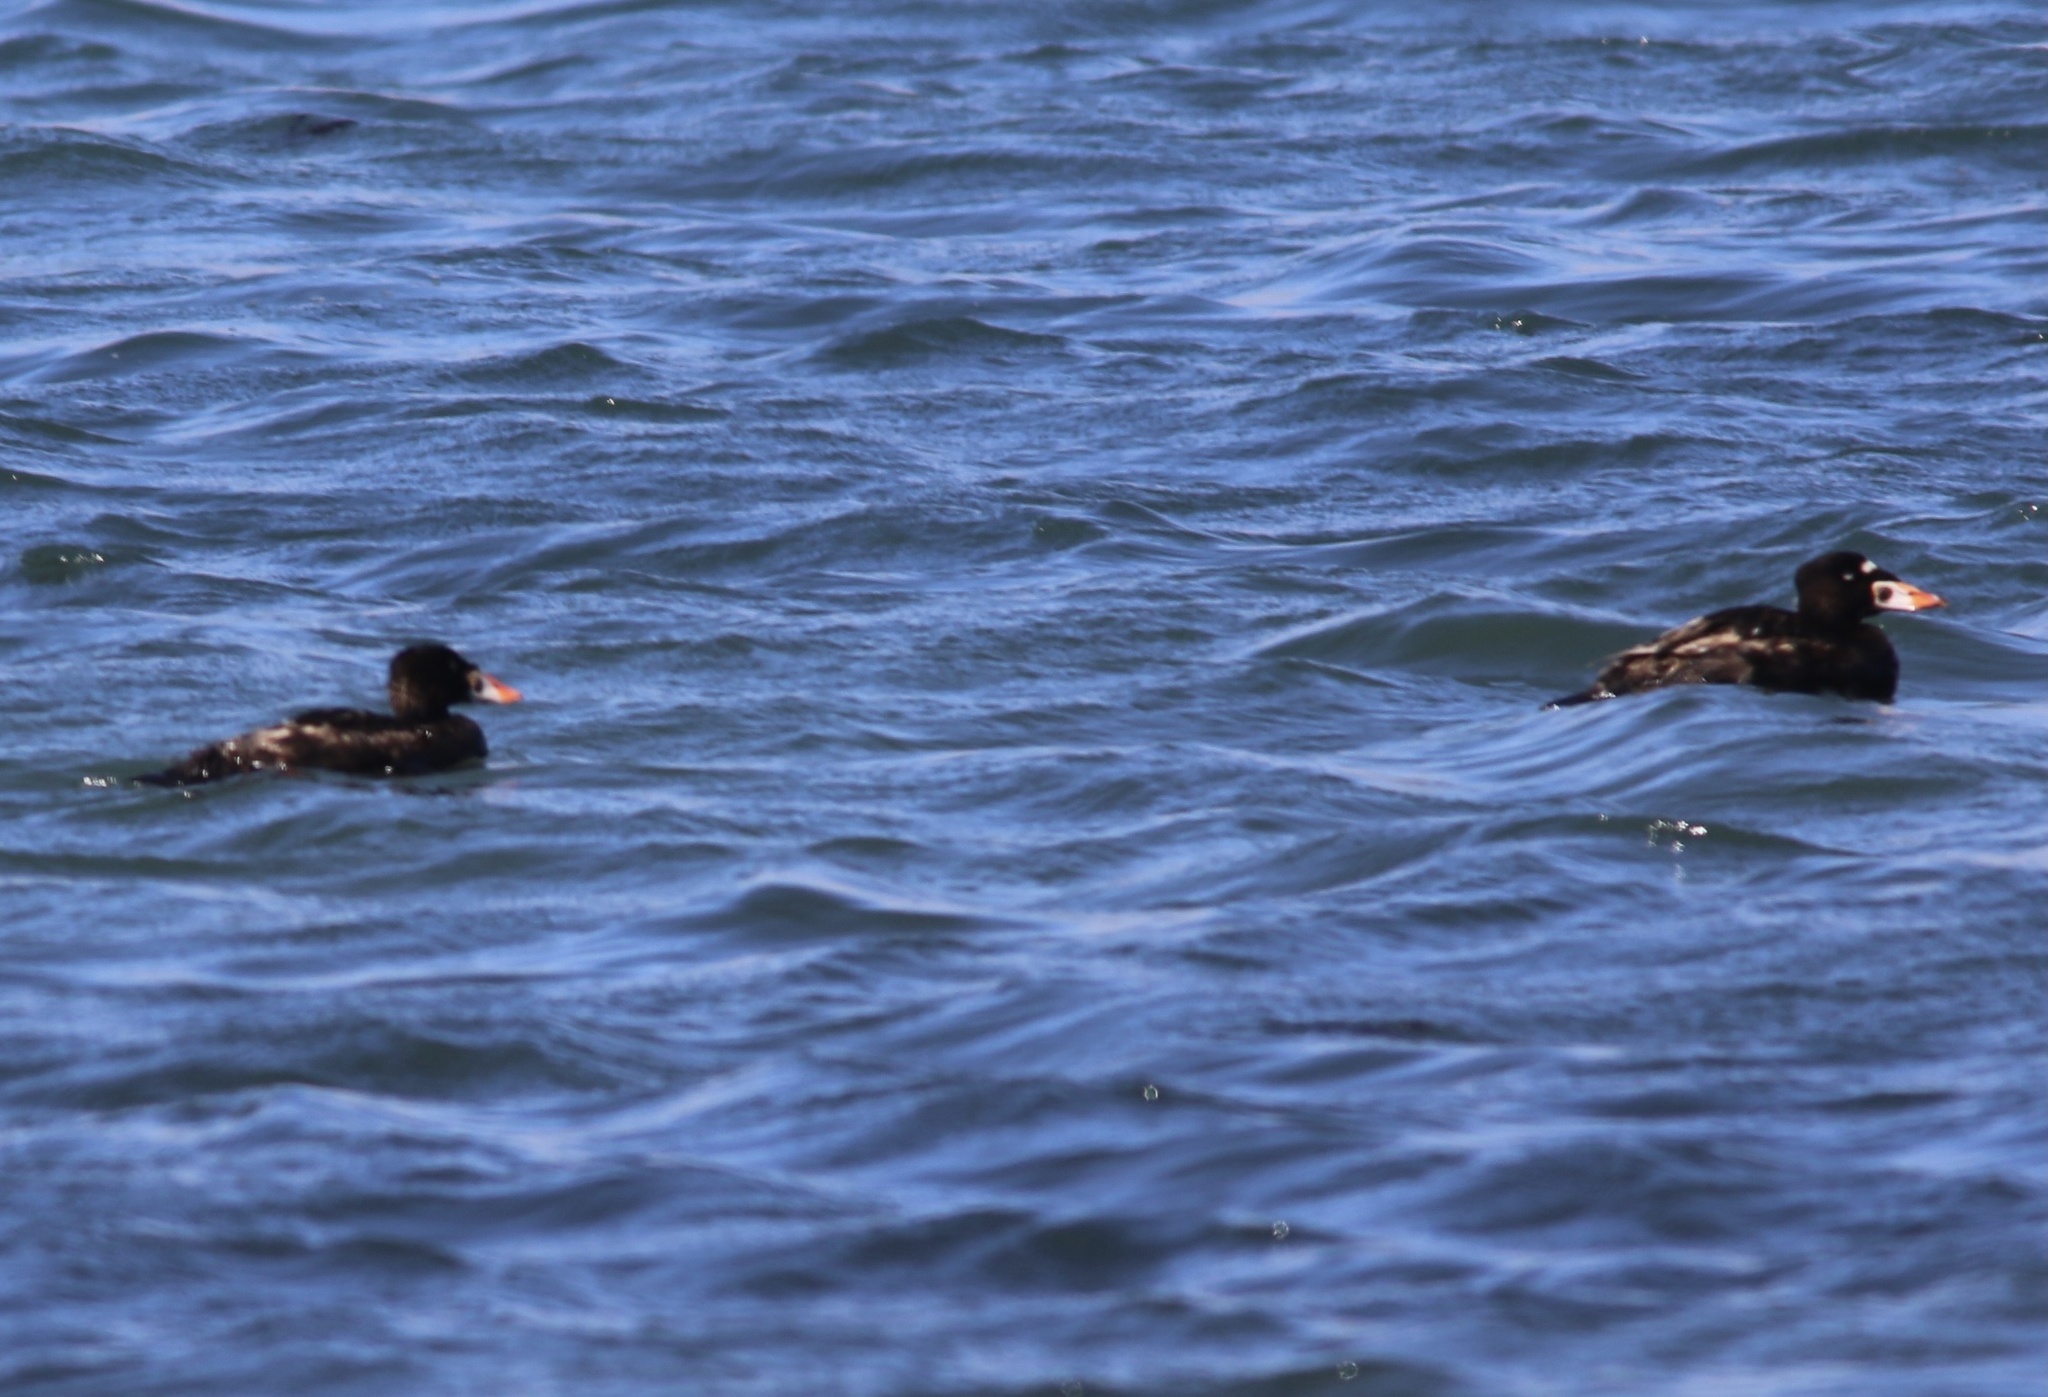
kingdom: Animalia
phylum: Chordata
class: Aves
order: Anseriformes
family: Anatidae
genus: Melanitta
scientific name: Melanitta perspicillata
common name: Surf scoter
